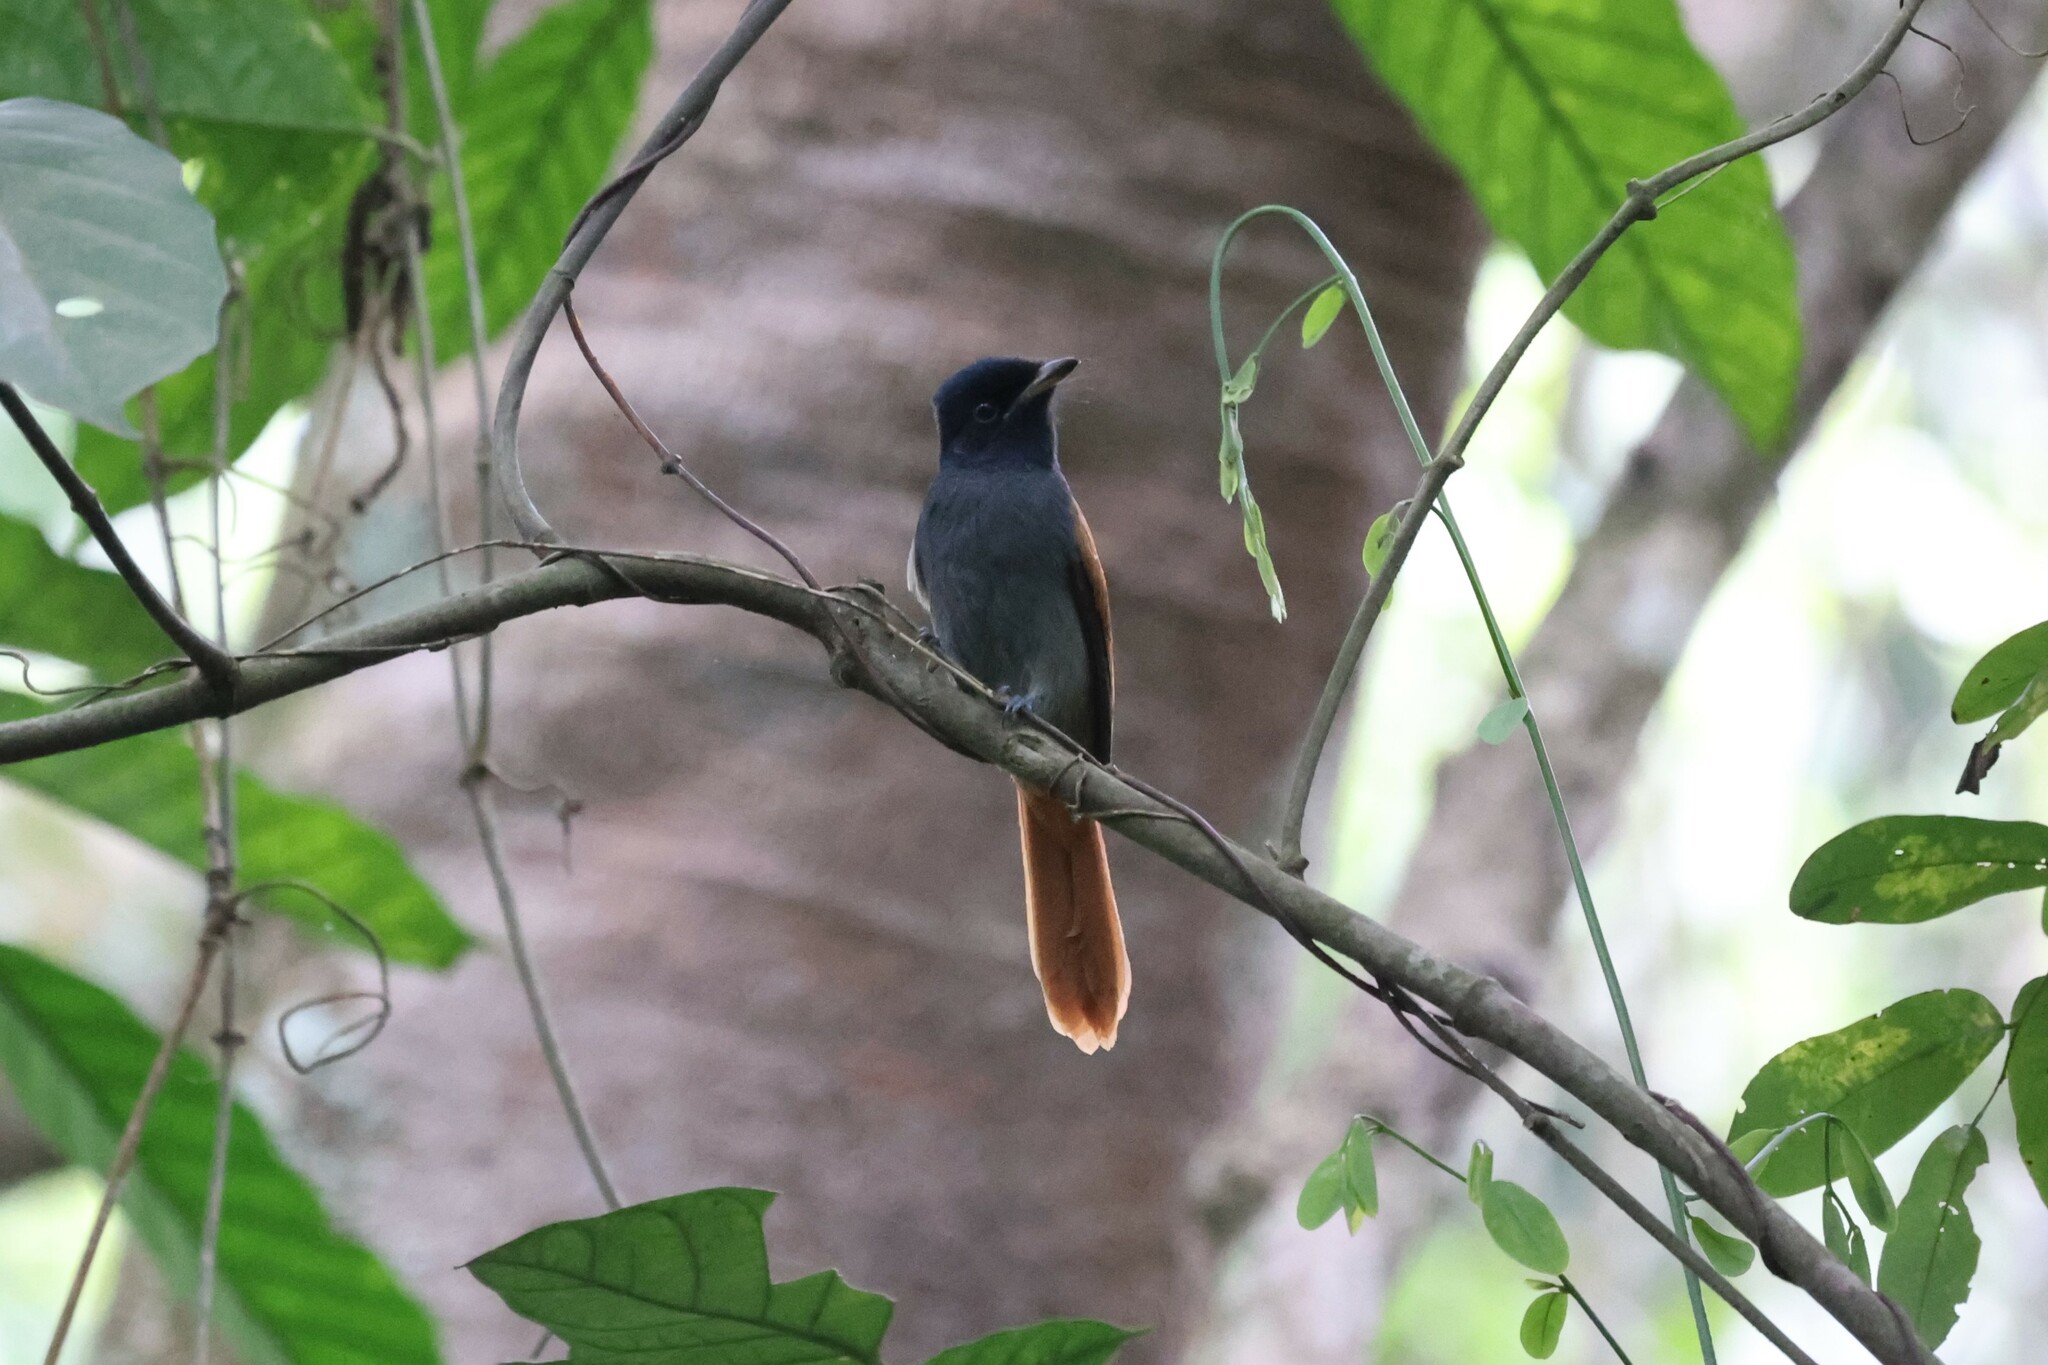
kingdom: Animalia
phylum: Chordata
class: Aves
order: Passeriformes
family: Monarchidae
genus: Terpsiphone
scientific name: Terpsiphone viridis
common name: African paradise flycatcher
